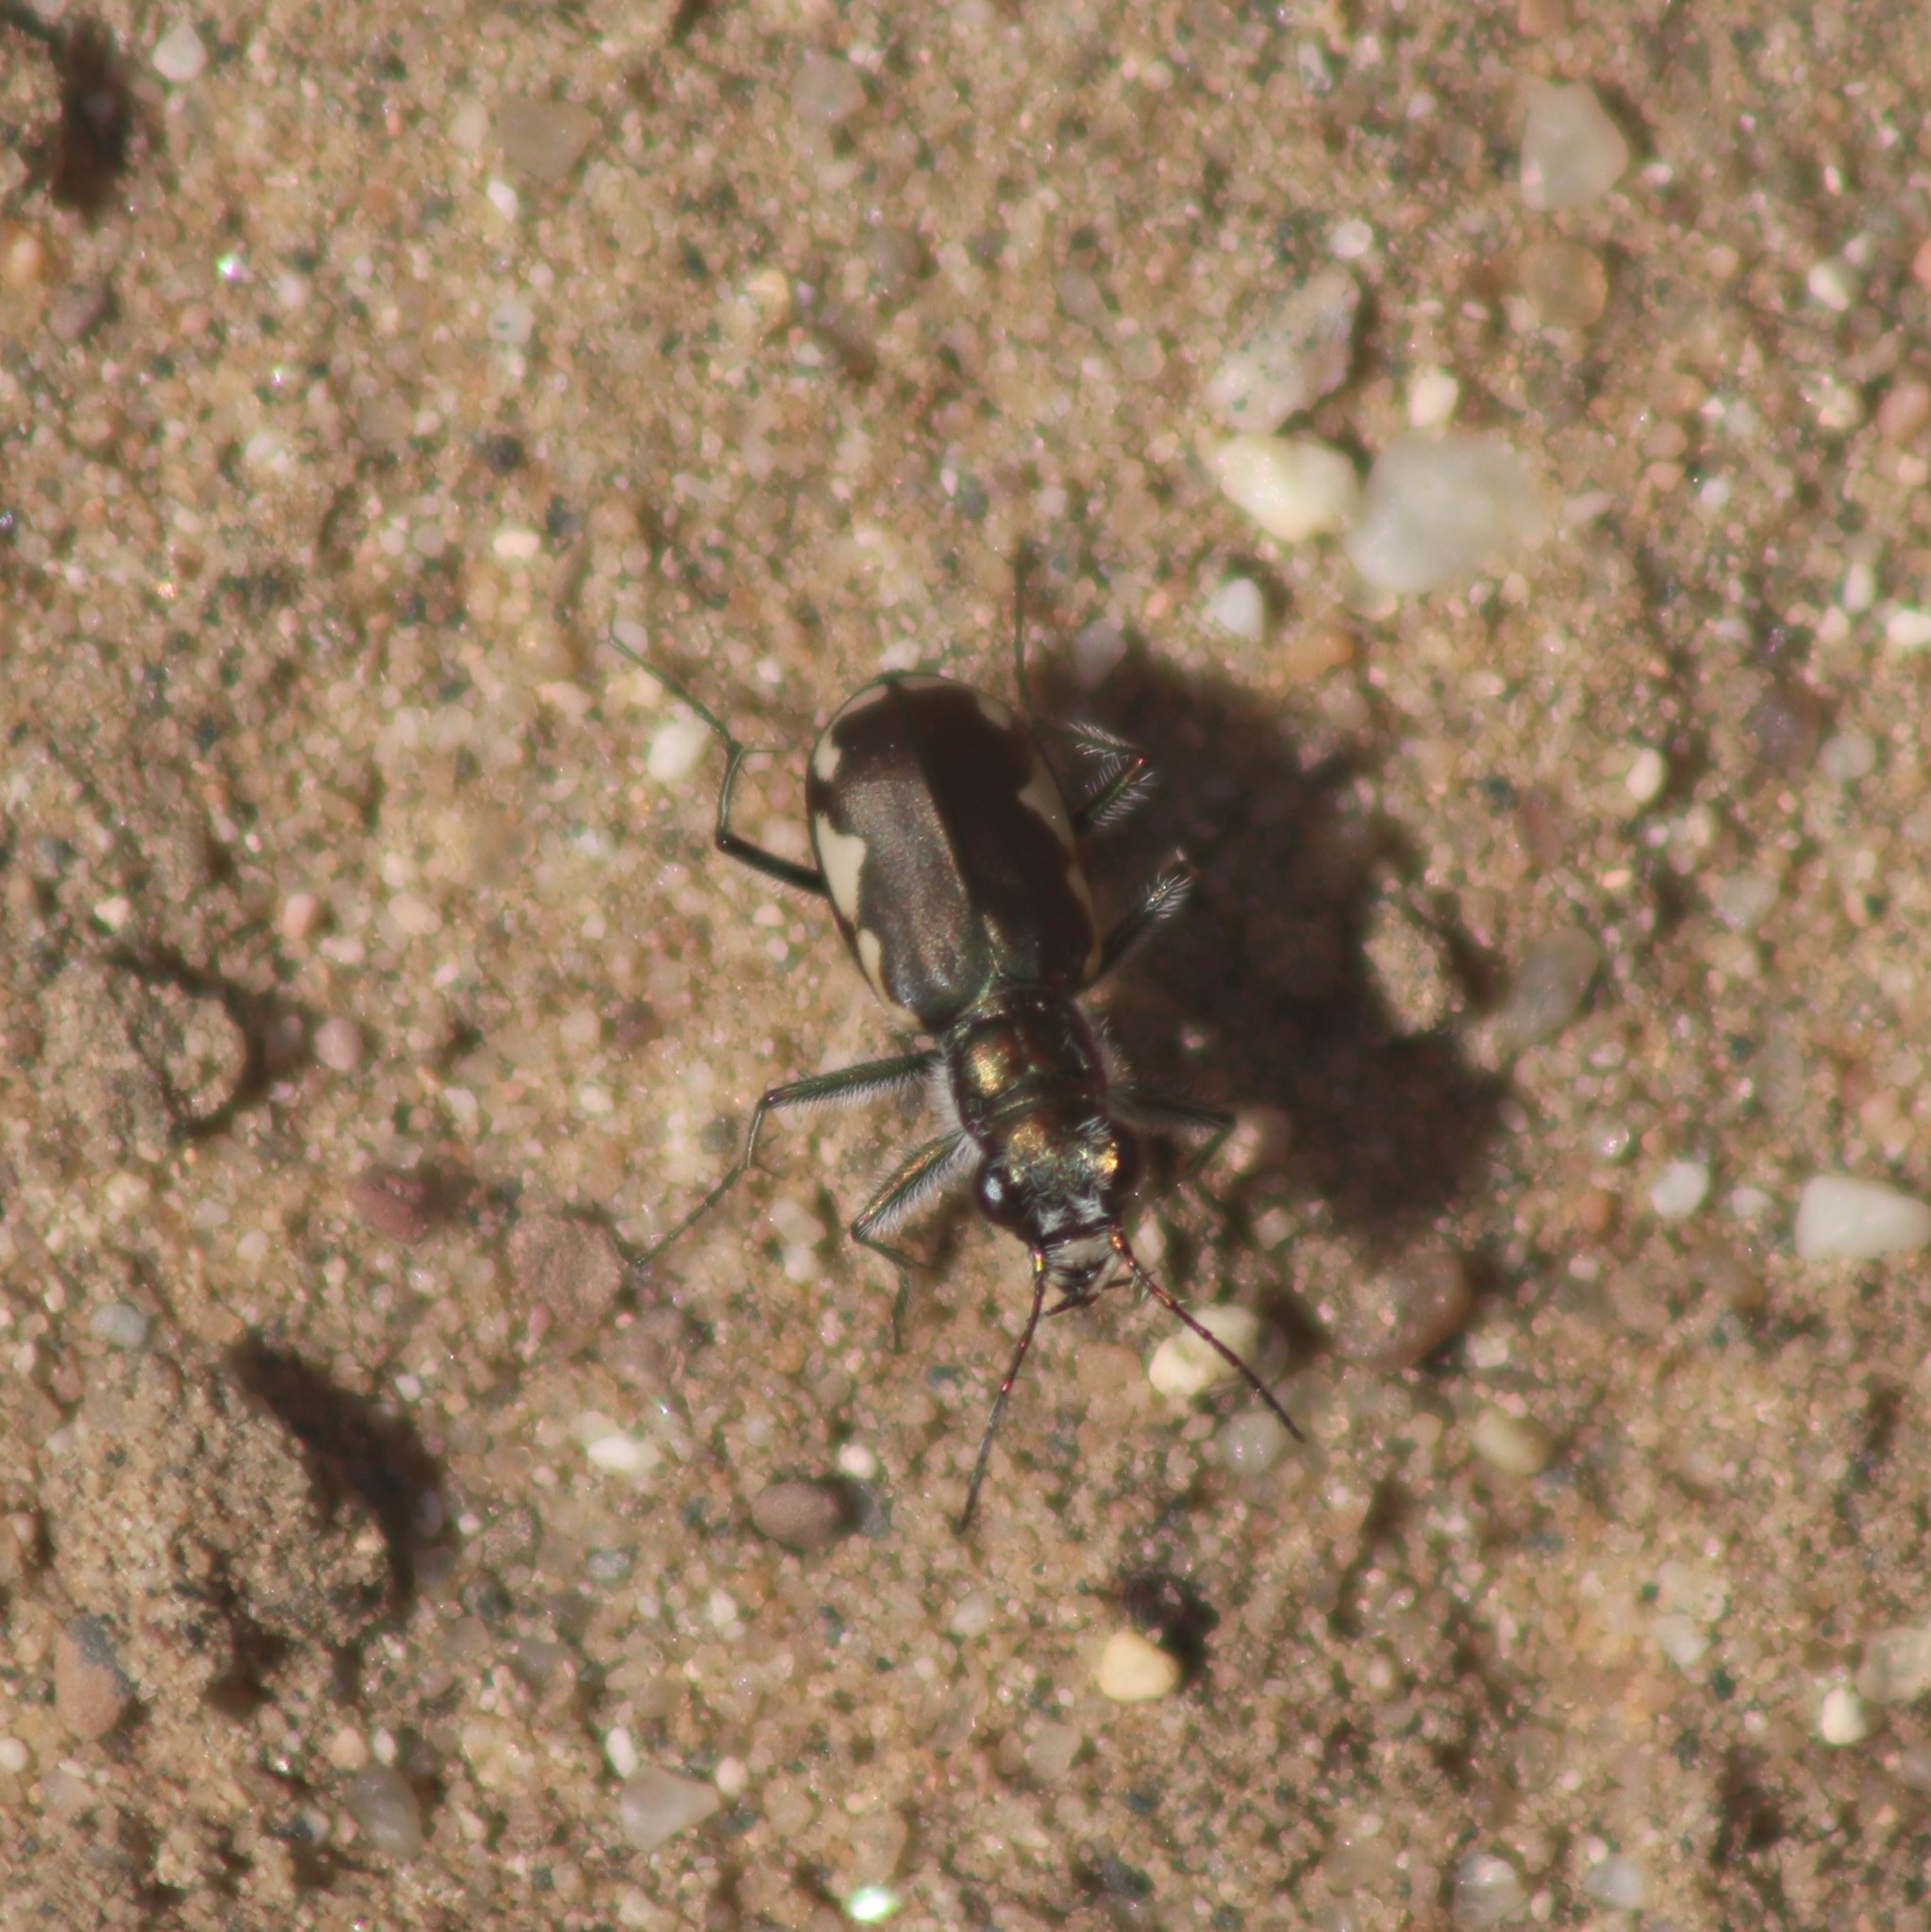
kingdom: Animalia
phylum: Arthropoda
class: Insecta
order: Coleoptera
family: Carabidae
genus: Cicindela
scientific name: Cicindela scutellaris
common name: Festive tiger beetle
